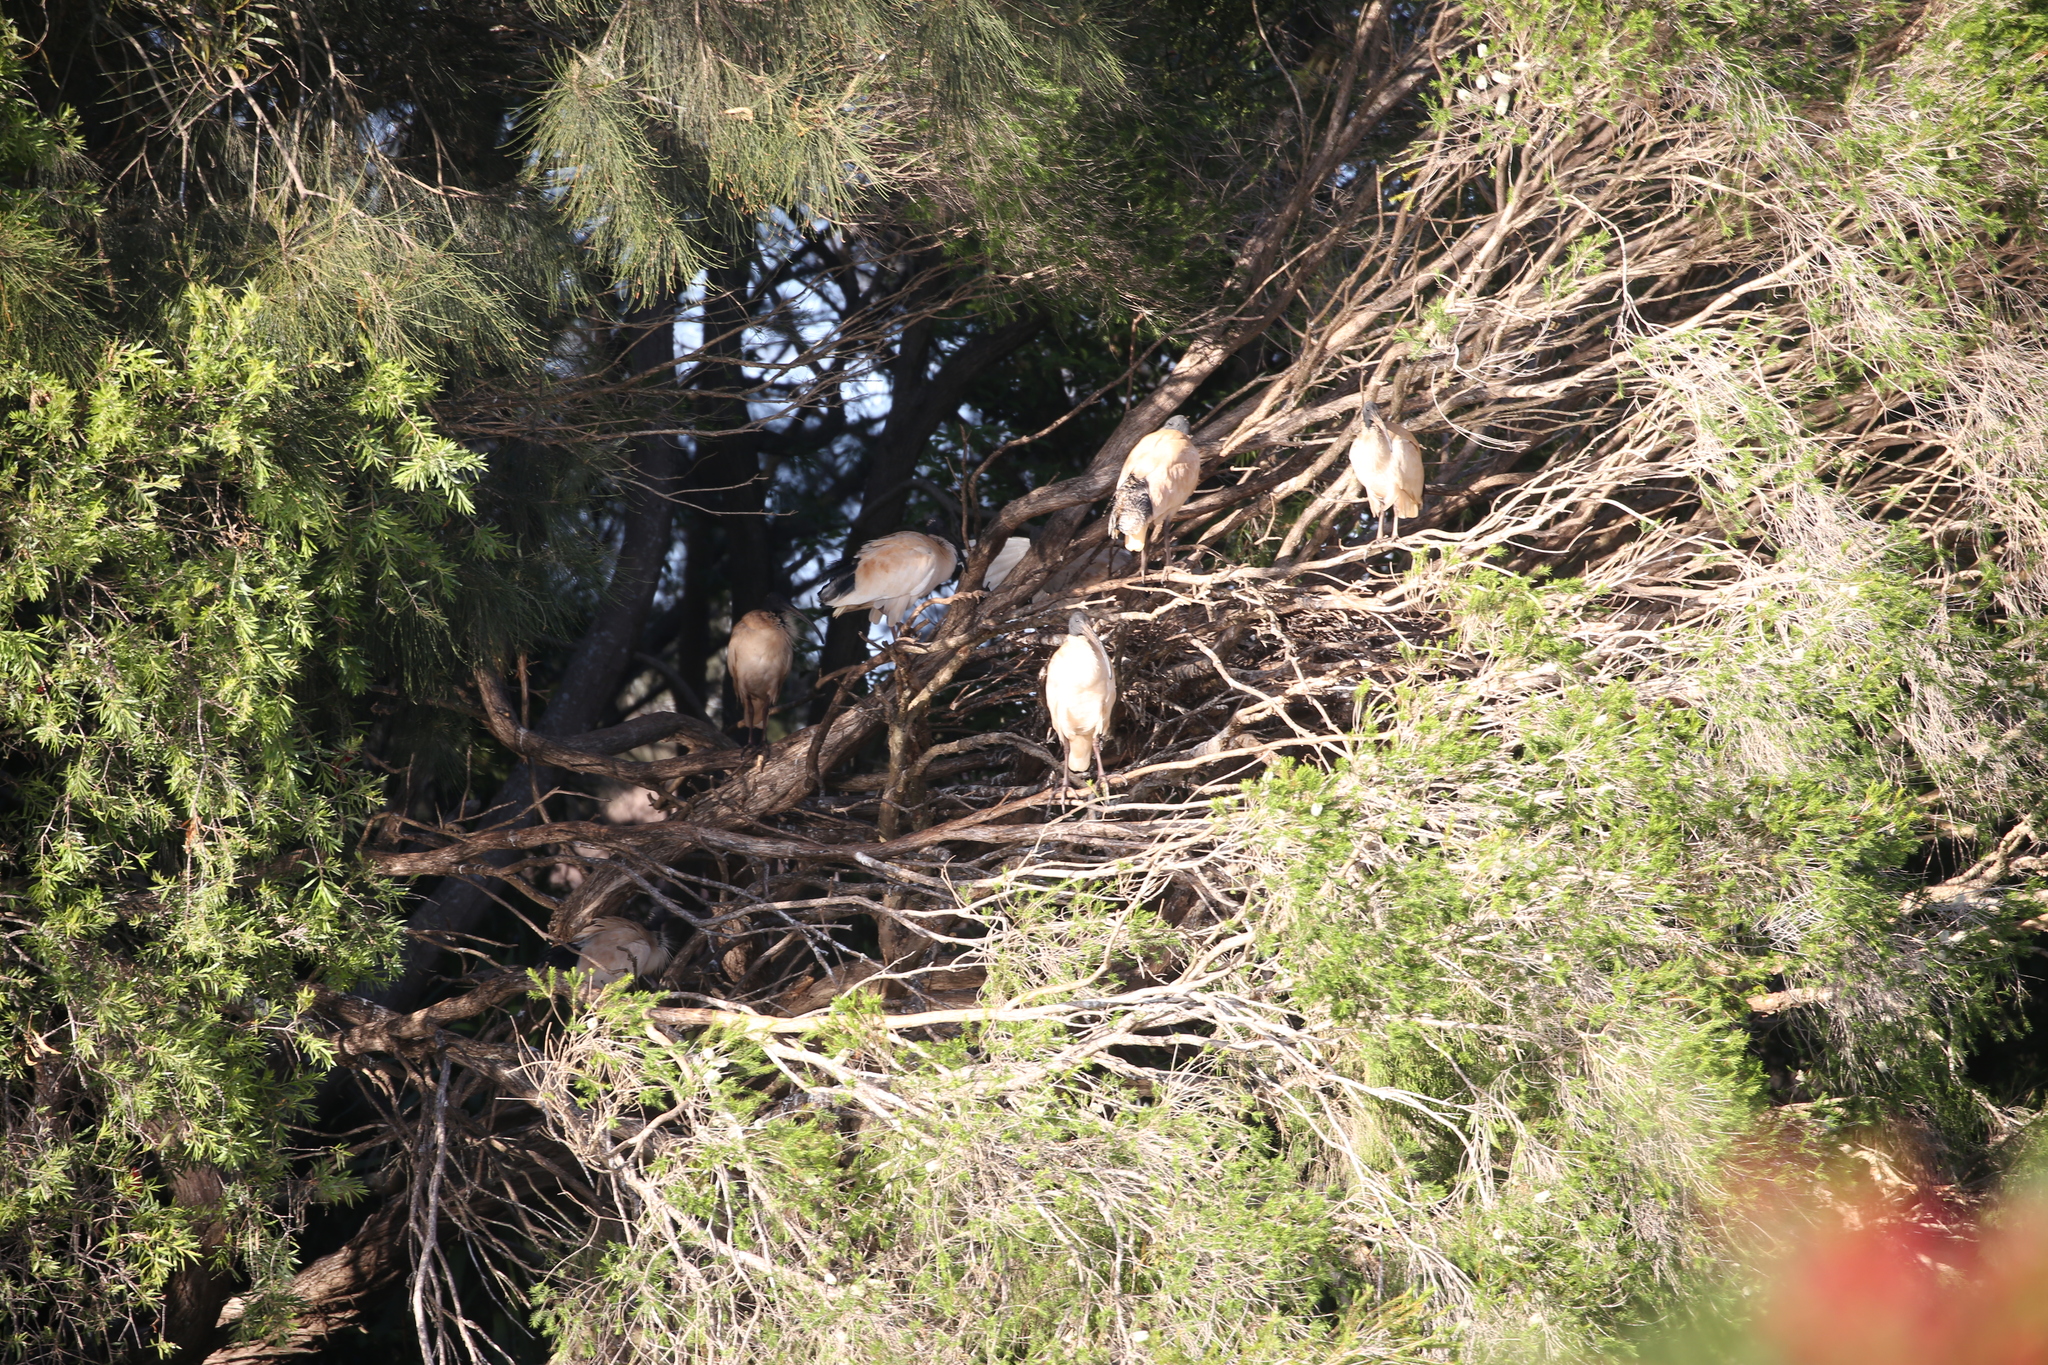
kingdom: Animalia
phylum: Chordata
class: Aves
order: Pelecaniformes
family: Threskiornithidae
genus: Threskiornis
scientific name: Threskiornis molucca
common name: Australian white ibis
